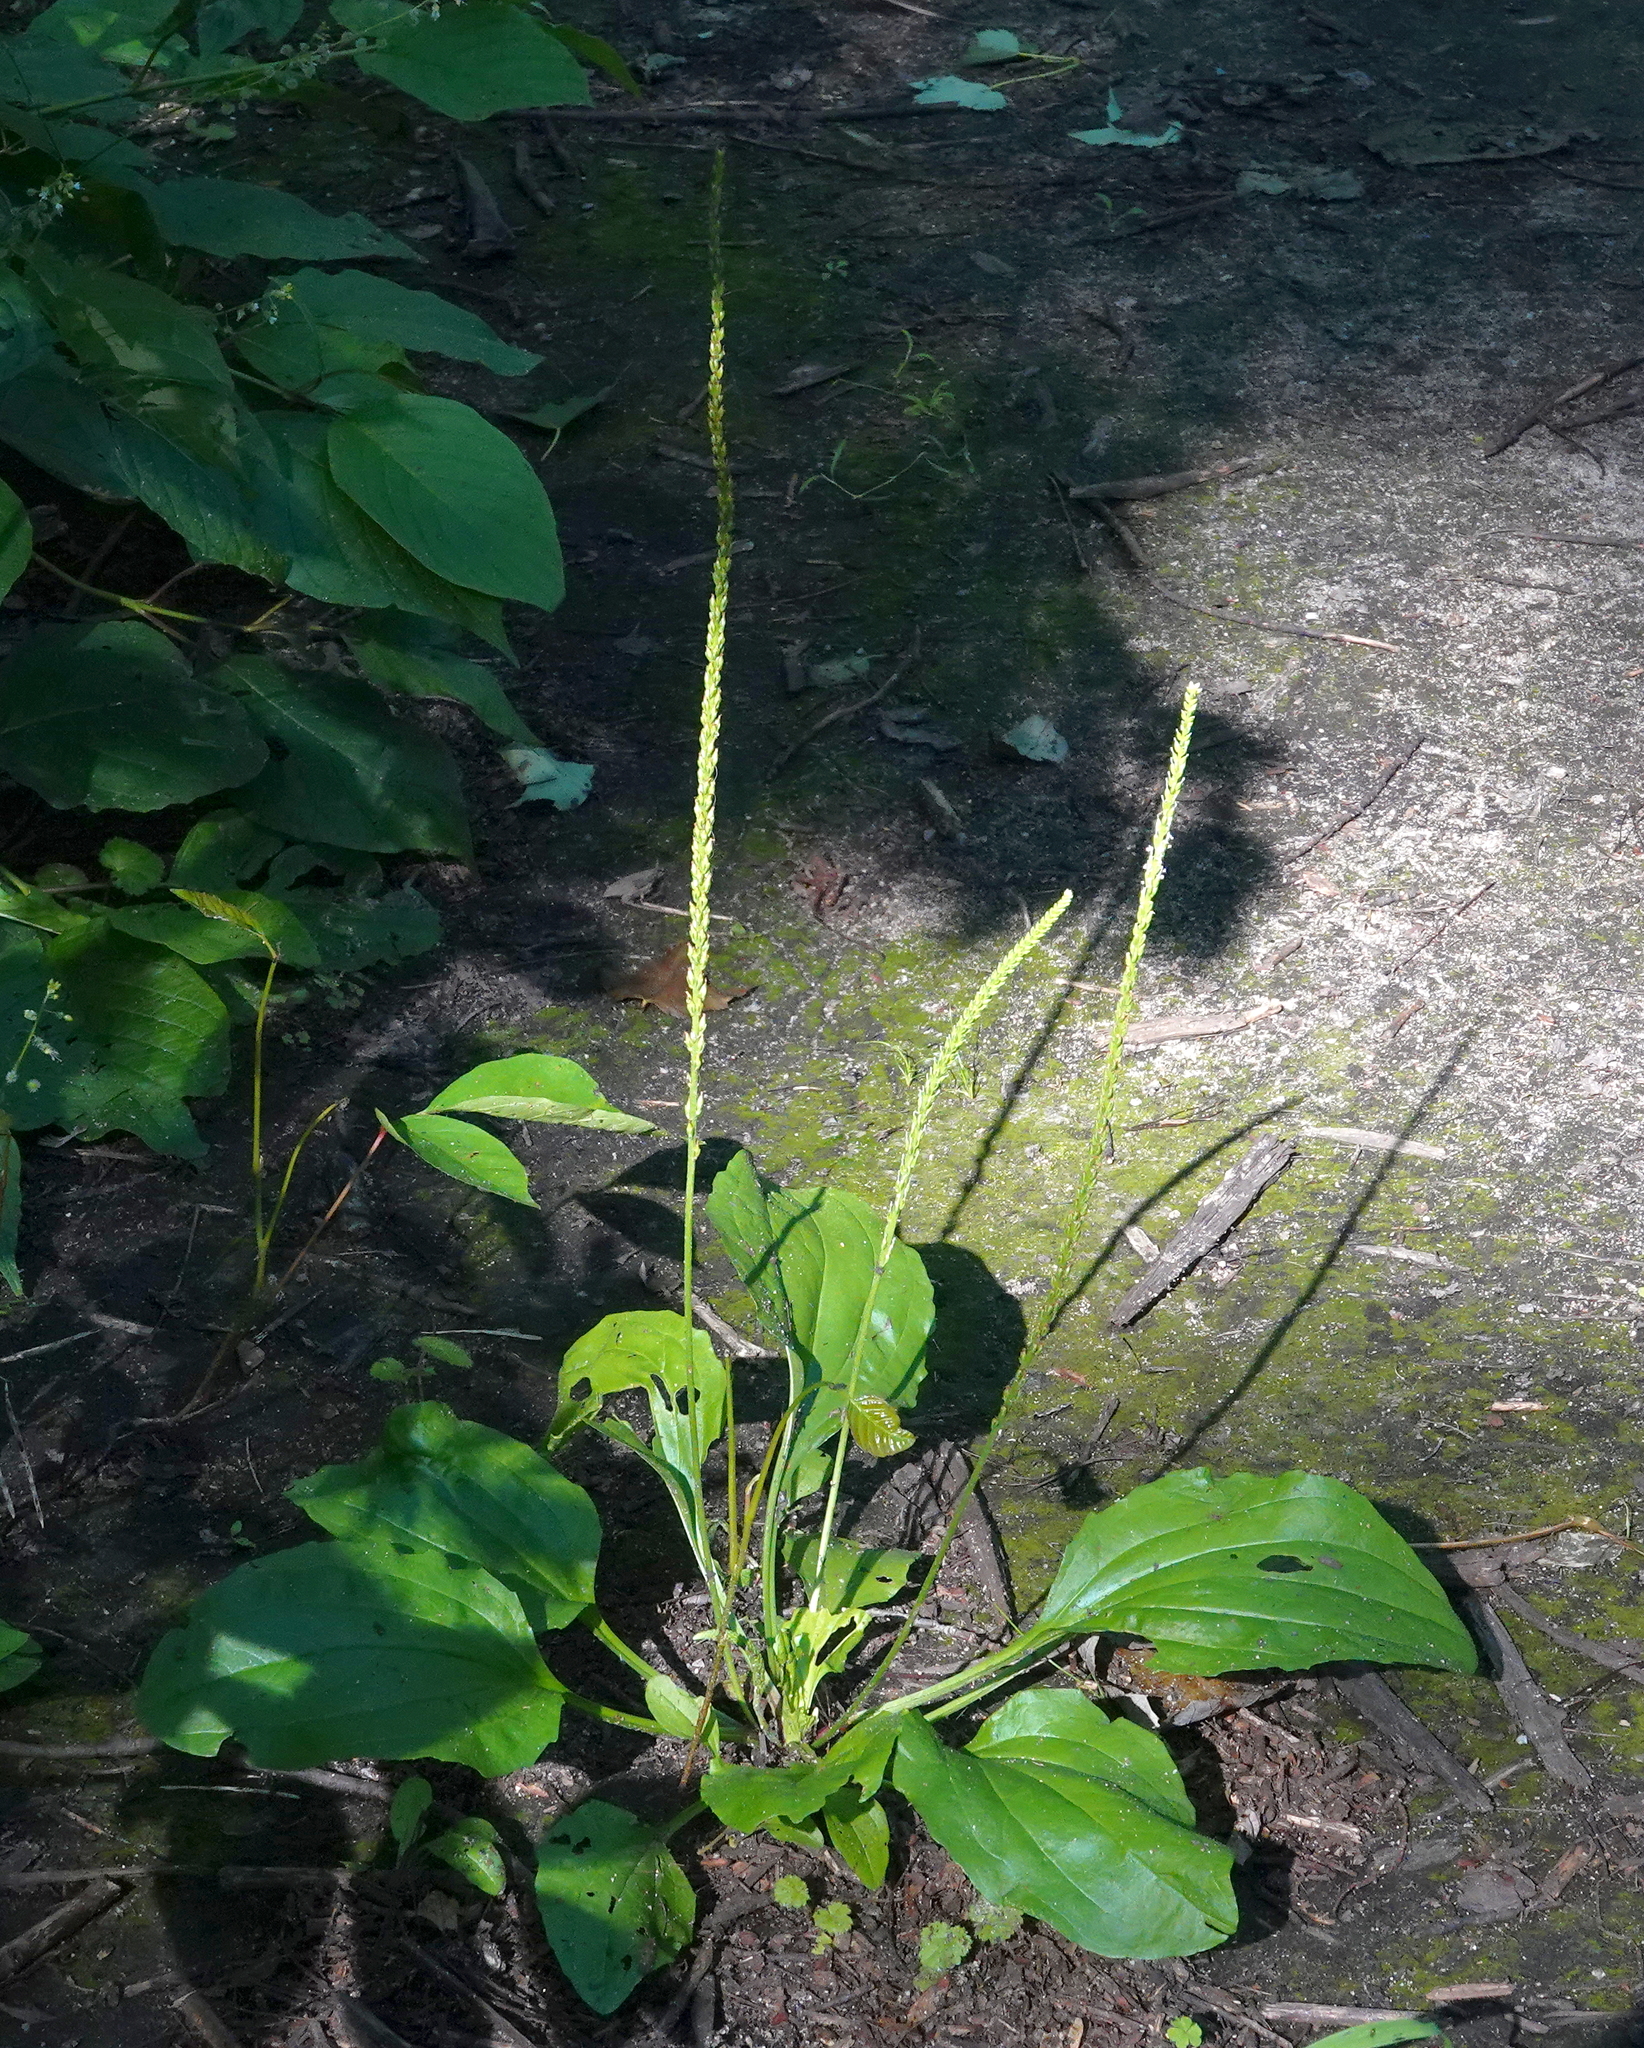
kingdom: Plantae
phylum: Tracheophyta
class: Magnoliopsida
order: Lamiales
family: Plantaginaceae
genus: Plantago
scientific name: Plantago rugelii
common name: American plantain
